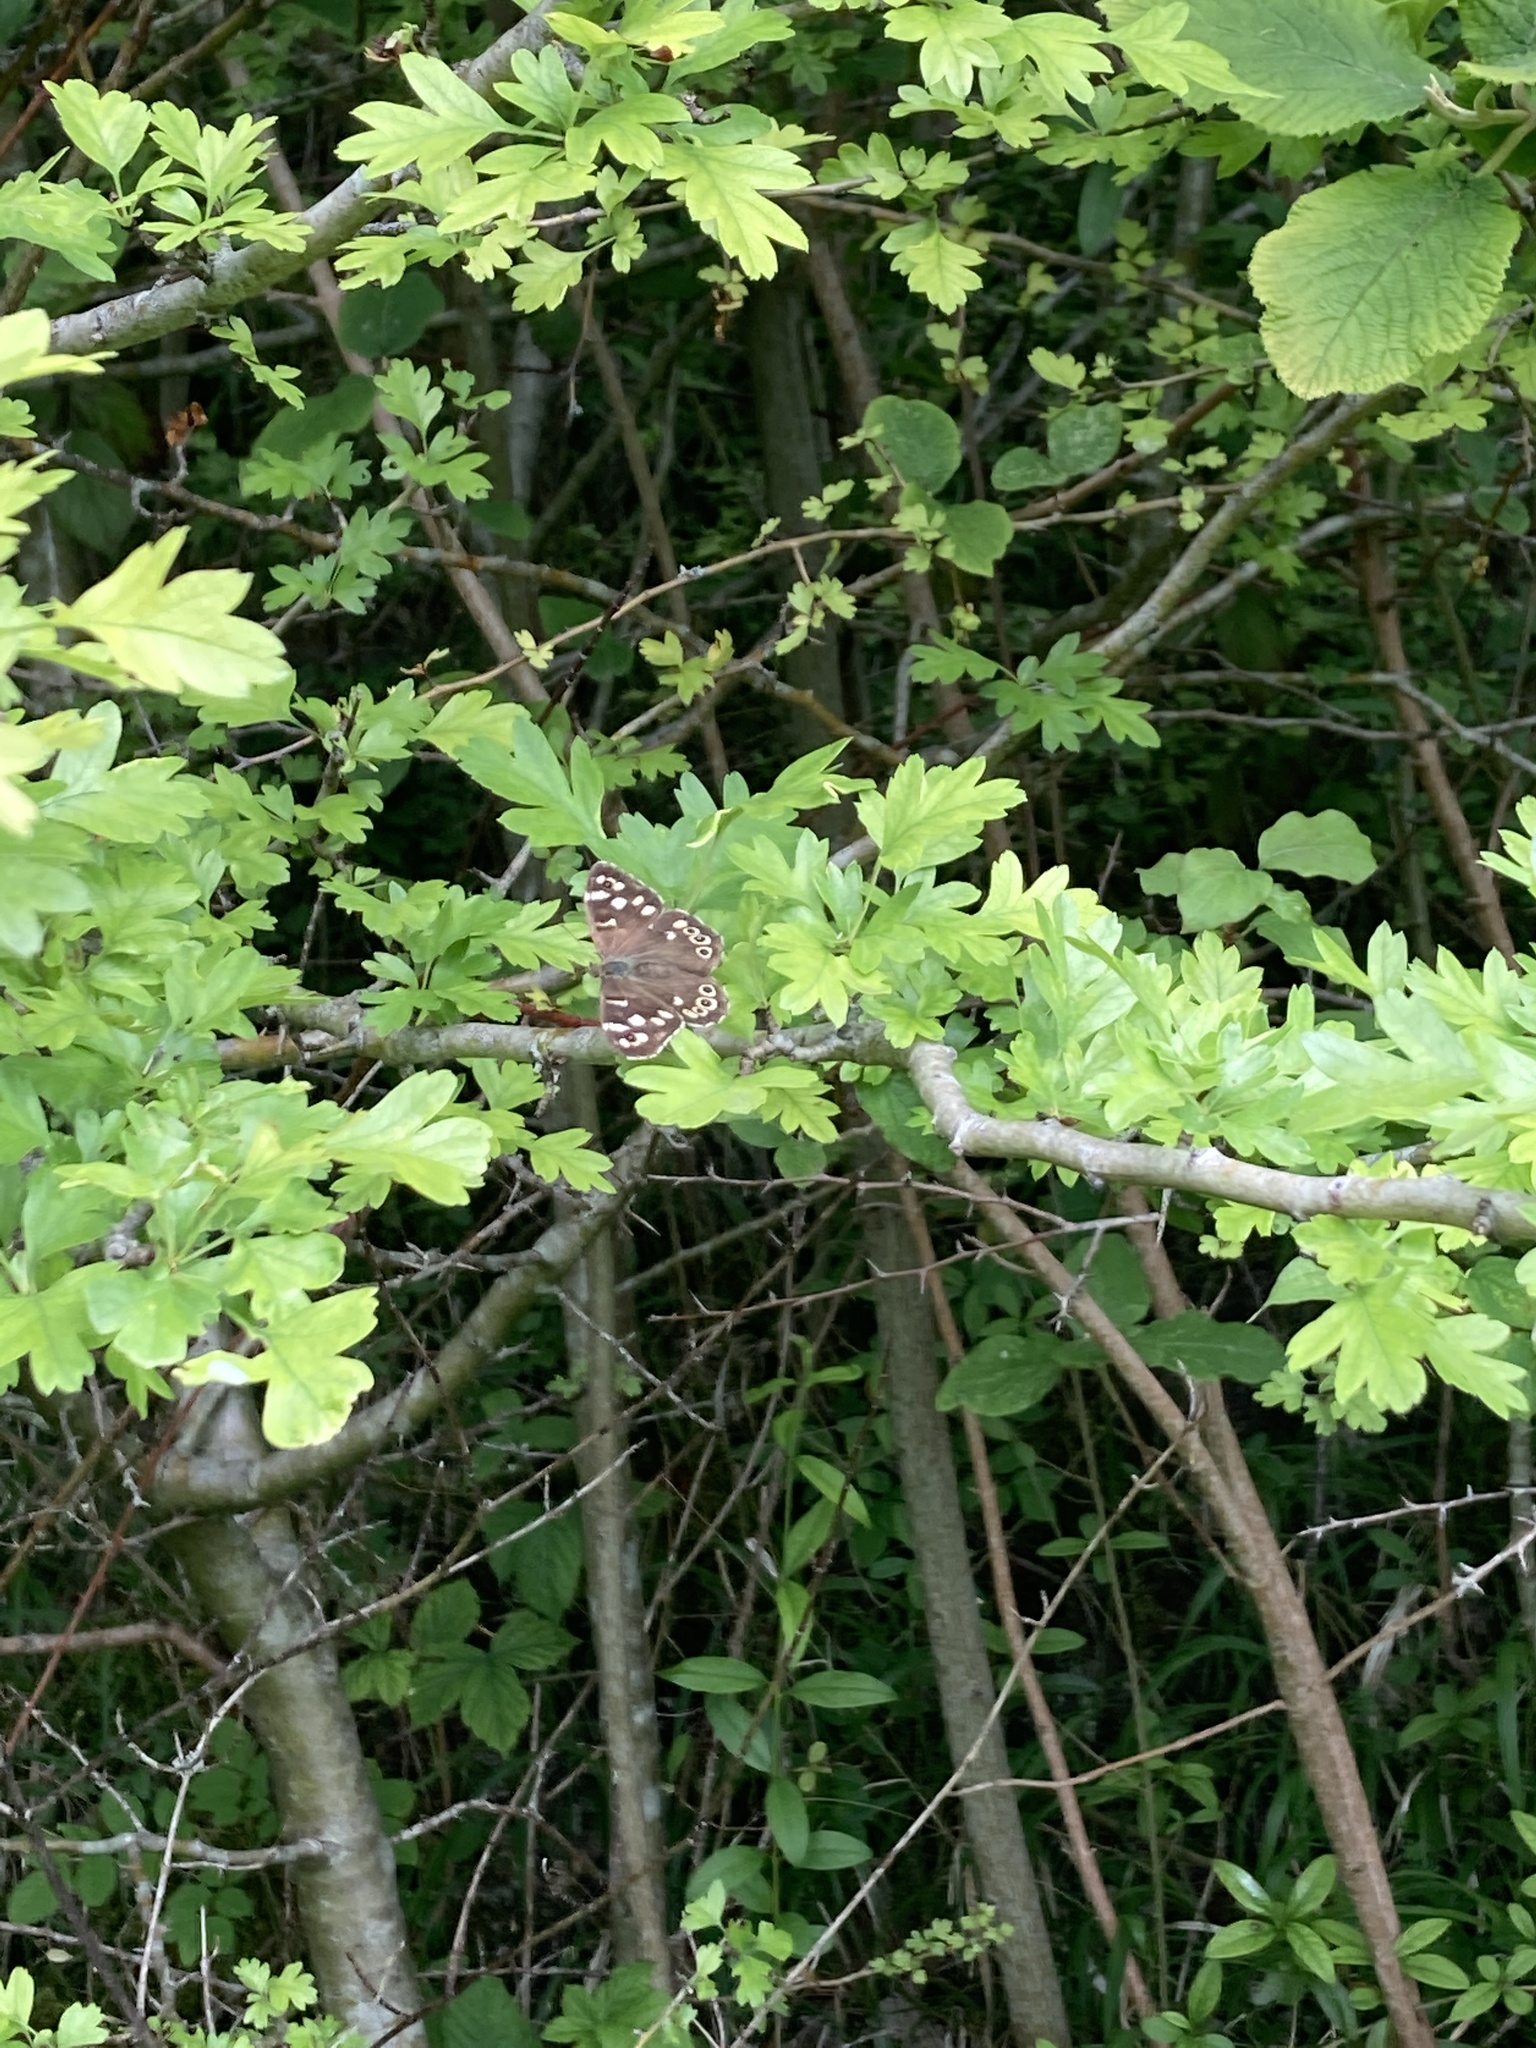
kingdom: Animalia
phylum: Arthropoda
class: Insecta
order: Lepidoptera
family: Nymphalidae
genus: Pararge
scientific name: Pararge aegeria
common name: Speckled wood
